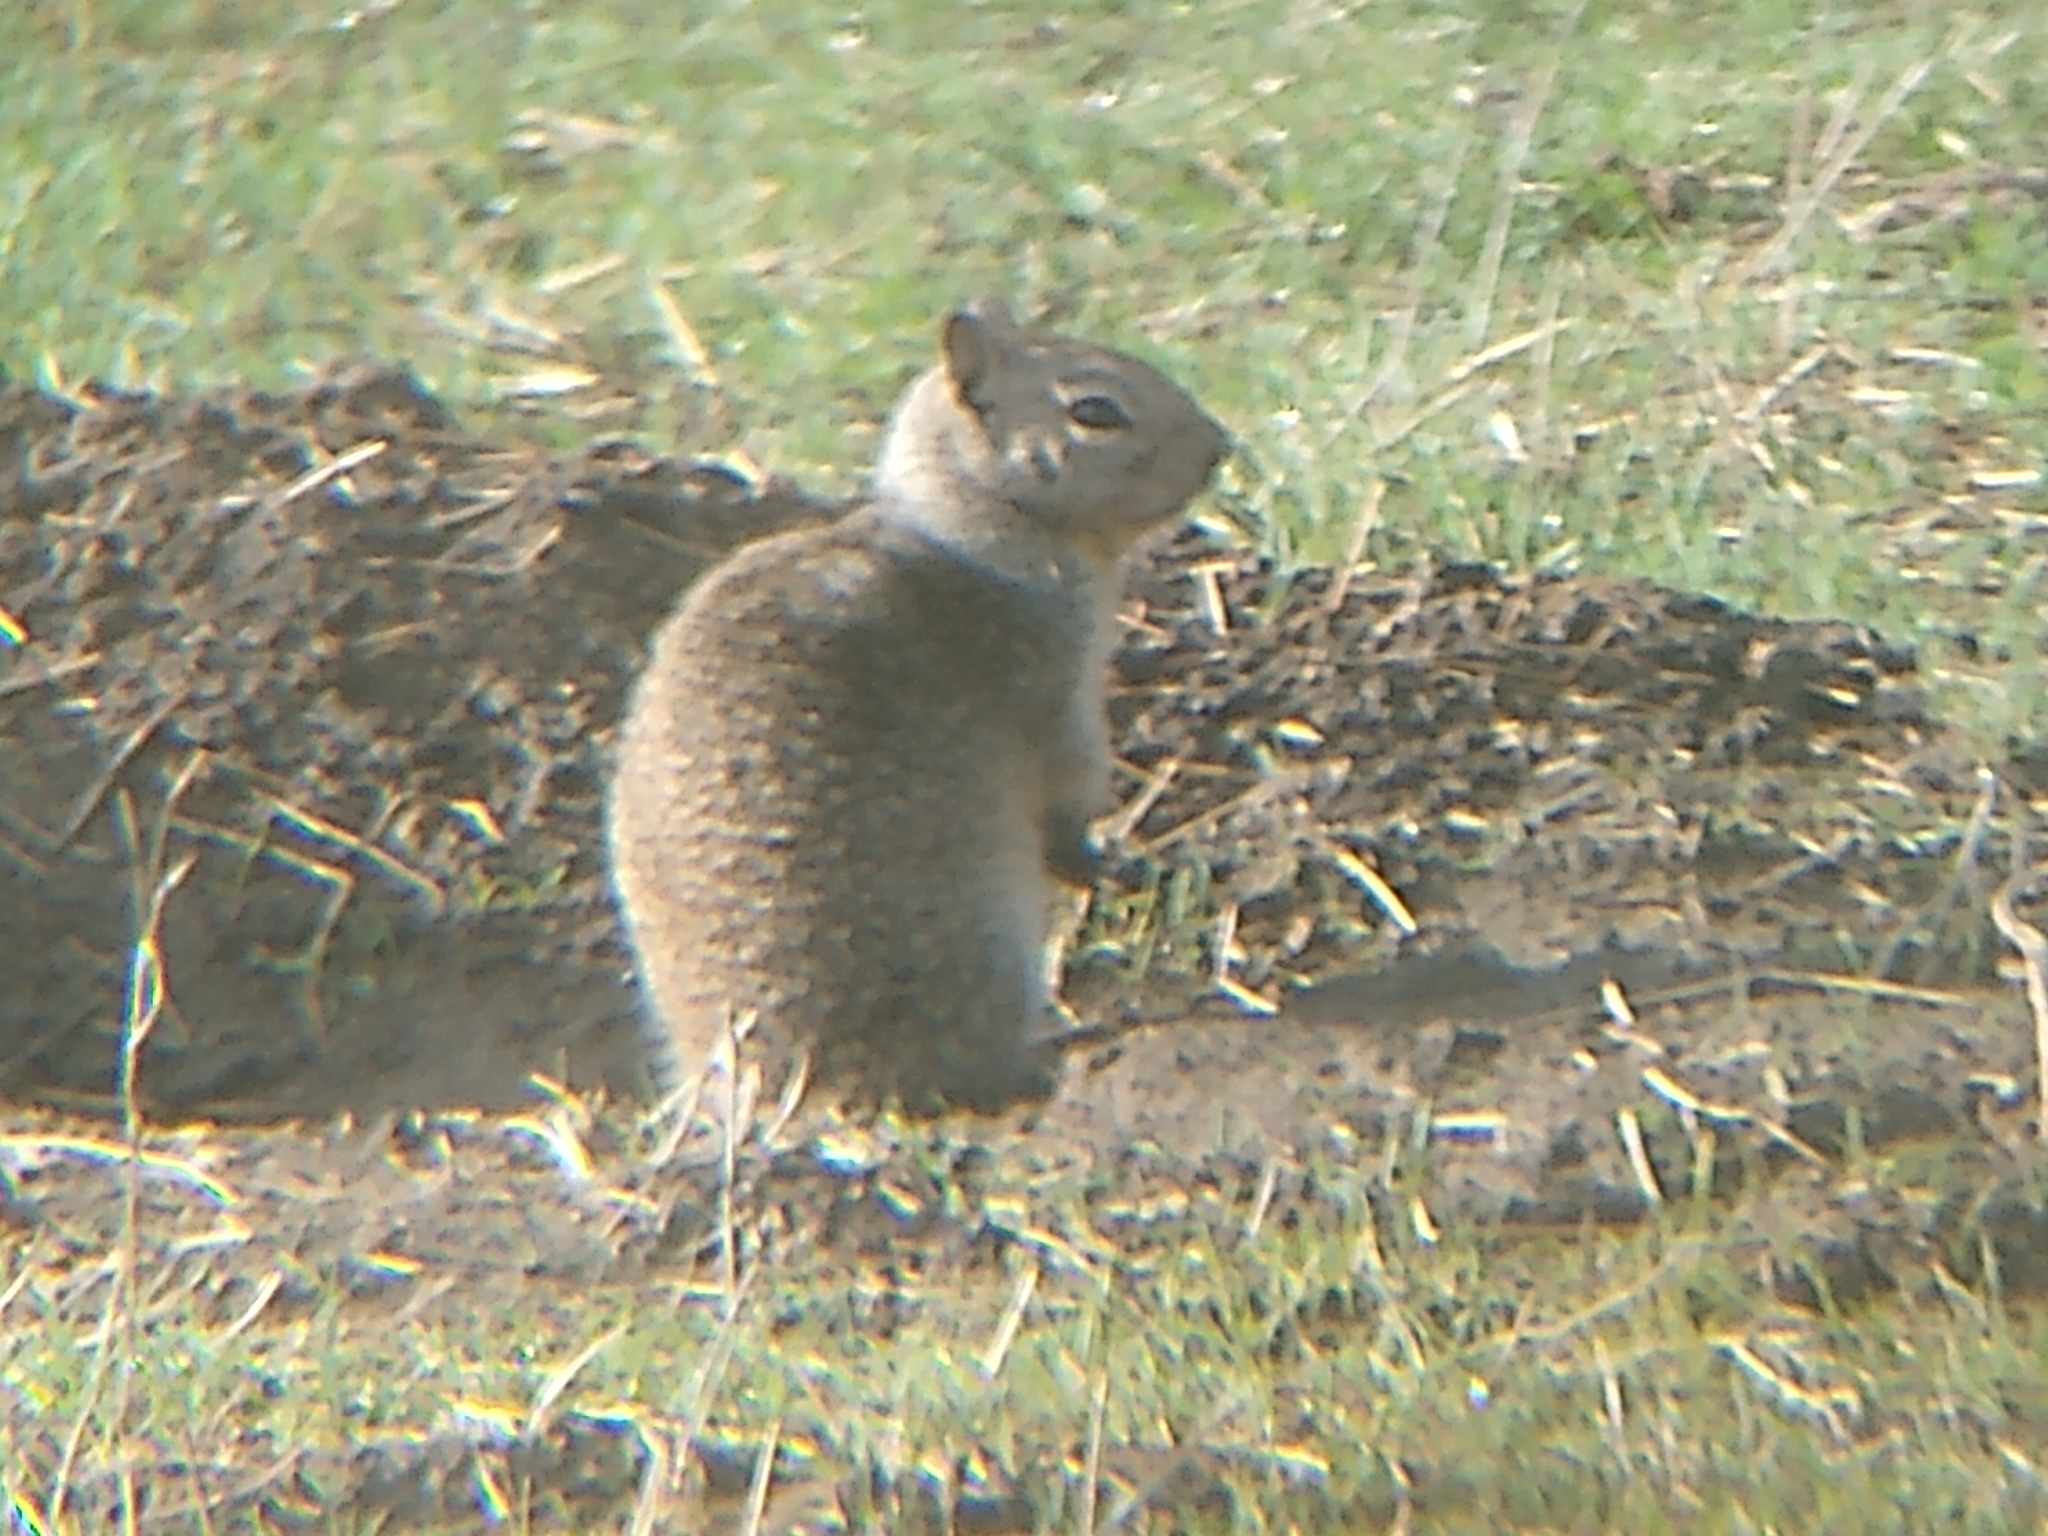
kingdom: Animalia
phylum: Chordata
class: Mammalia
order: Rodentia
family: Sciuridae
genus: Otospermophilus
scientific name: Otospermophilus beecheyi
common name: California ground squirrel
